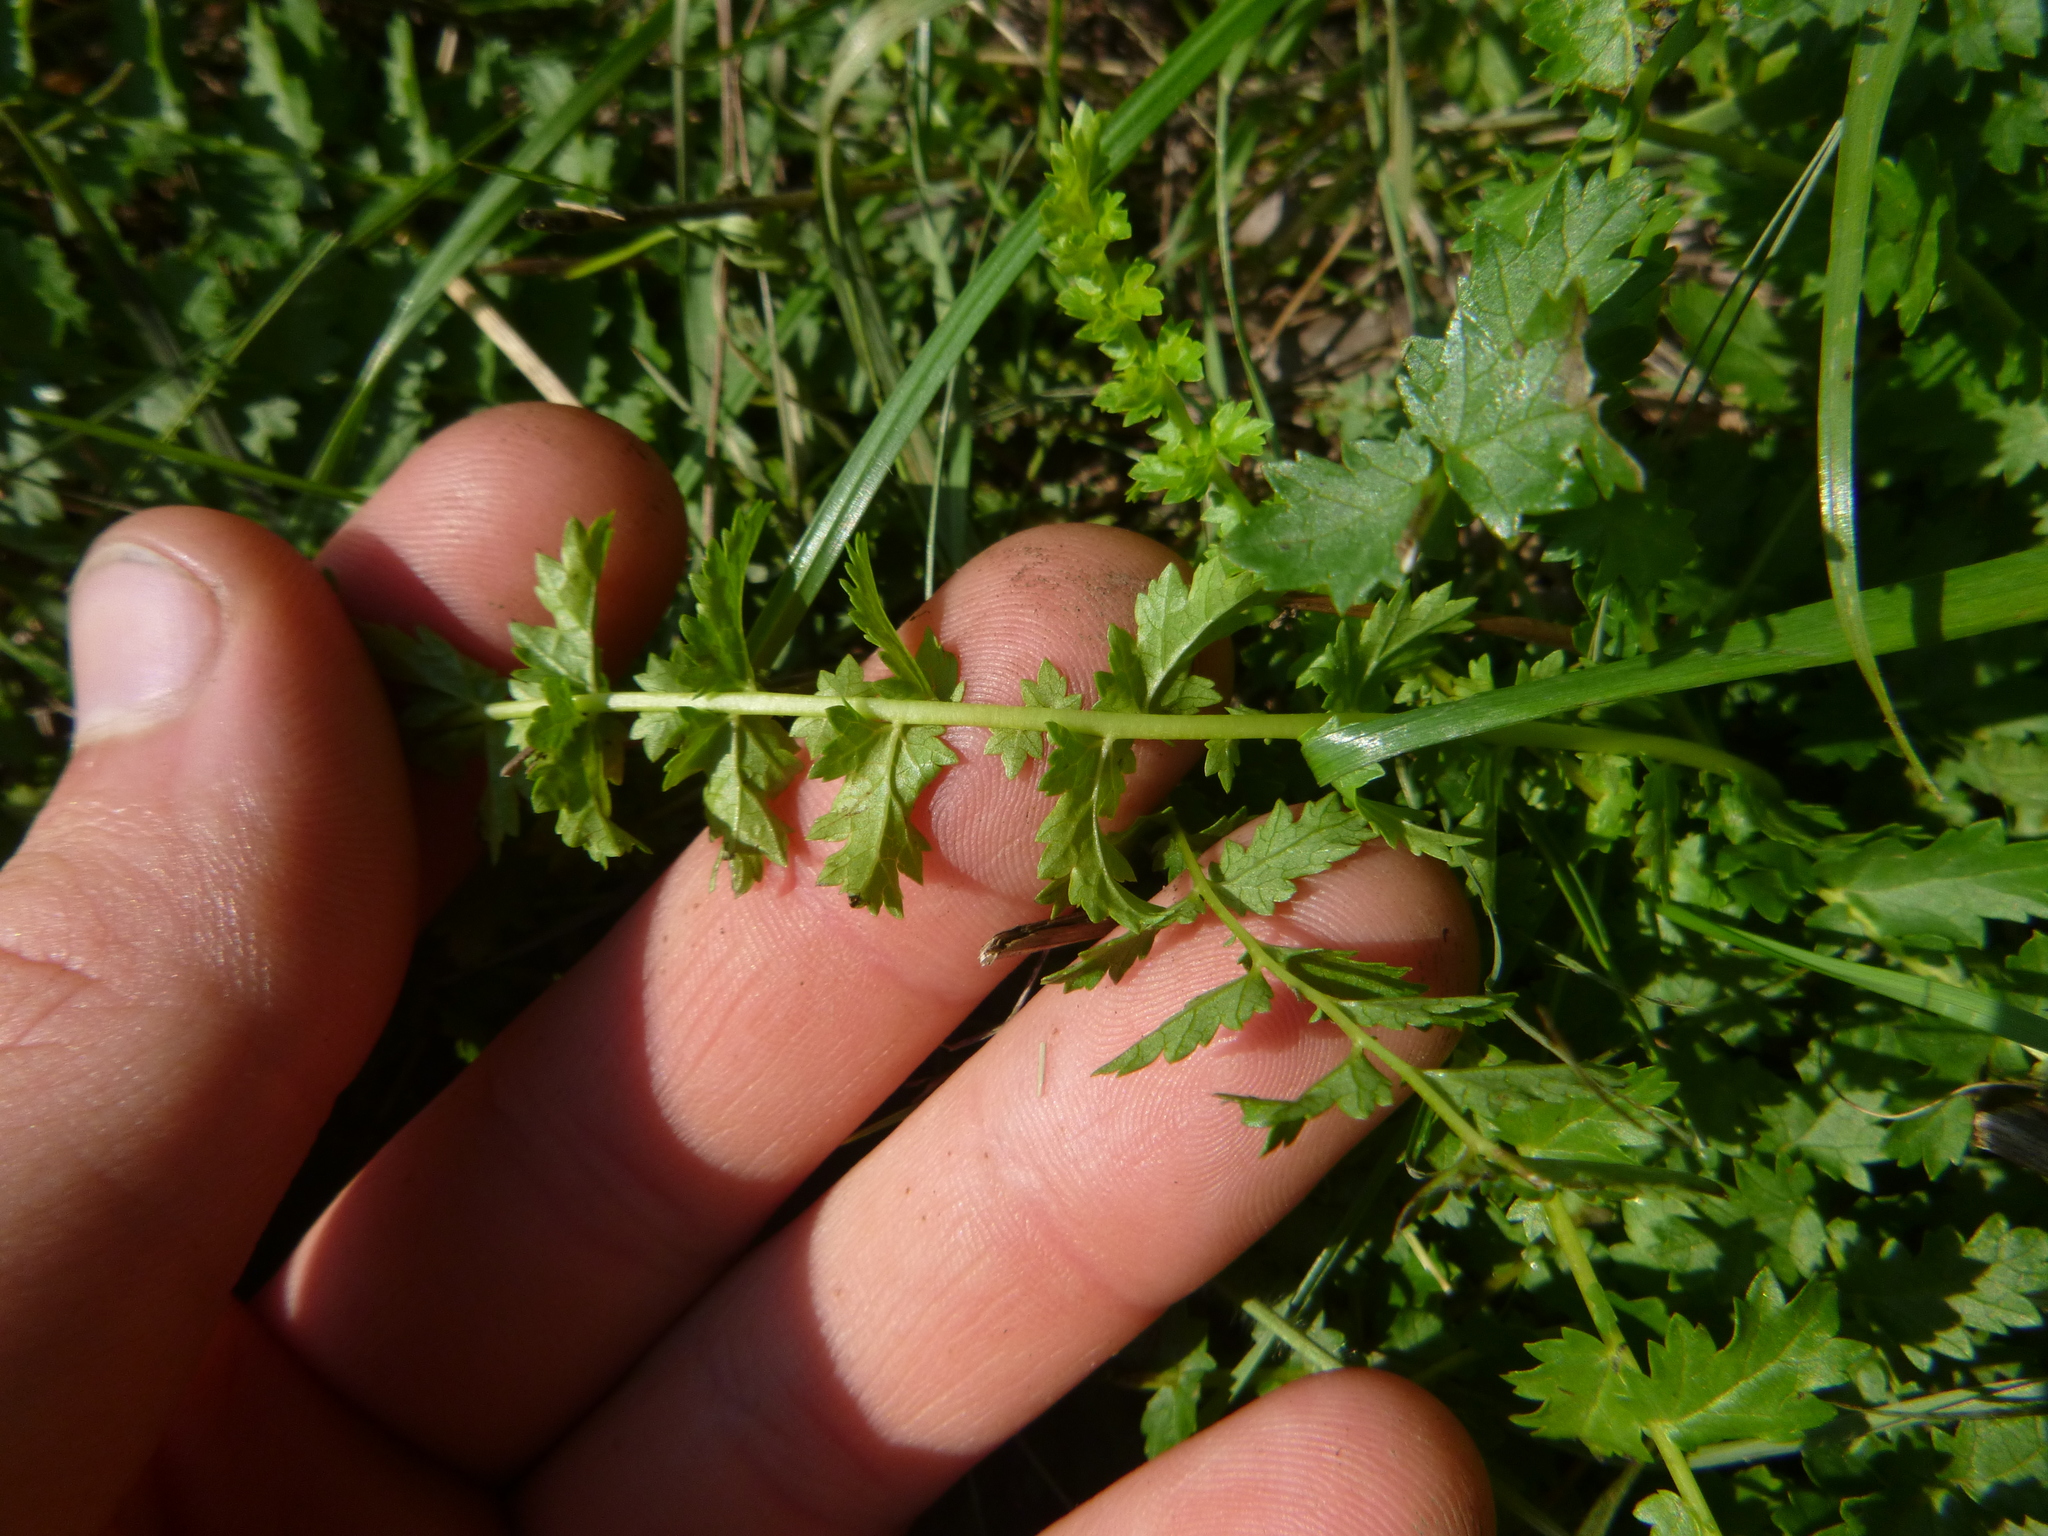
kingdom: Plantae
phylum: Tracheophyta
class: Magnoliopsida
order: Rosales
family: Rosaceae
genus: Filipendula
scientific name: Filipendula vulgaris
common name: Dropwort
